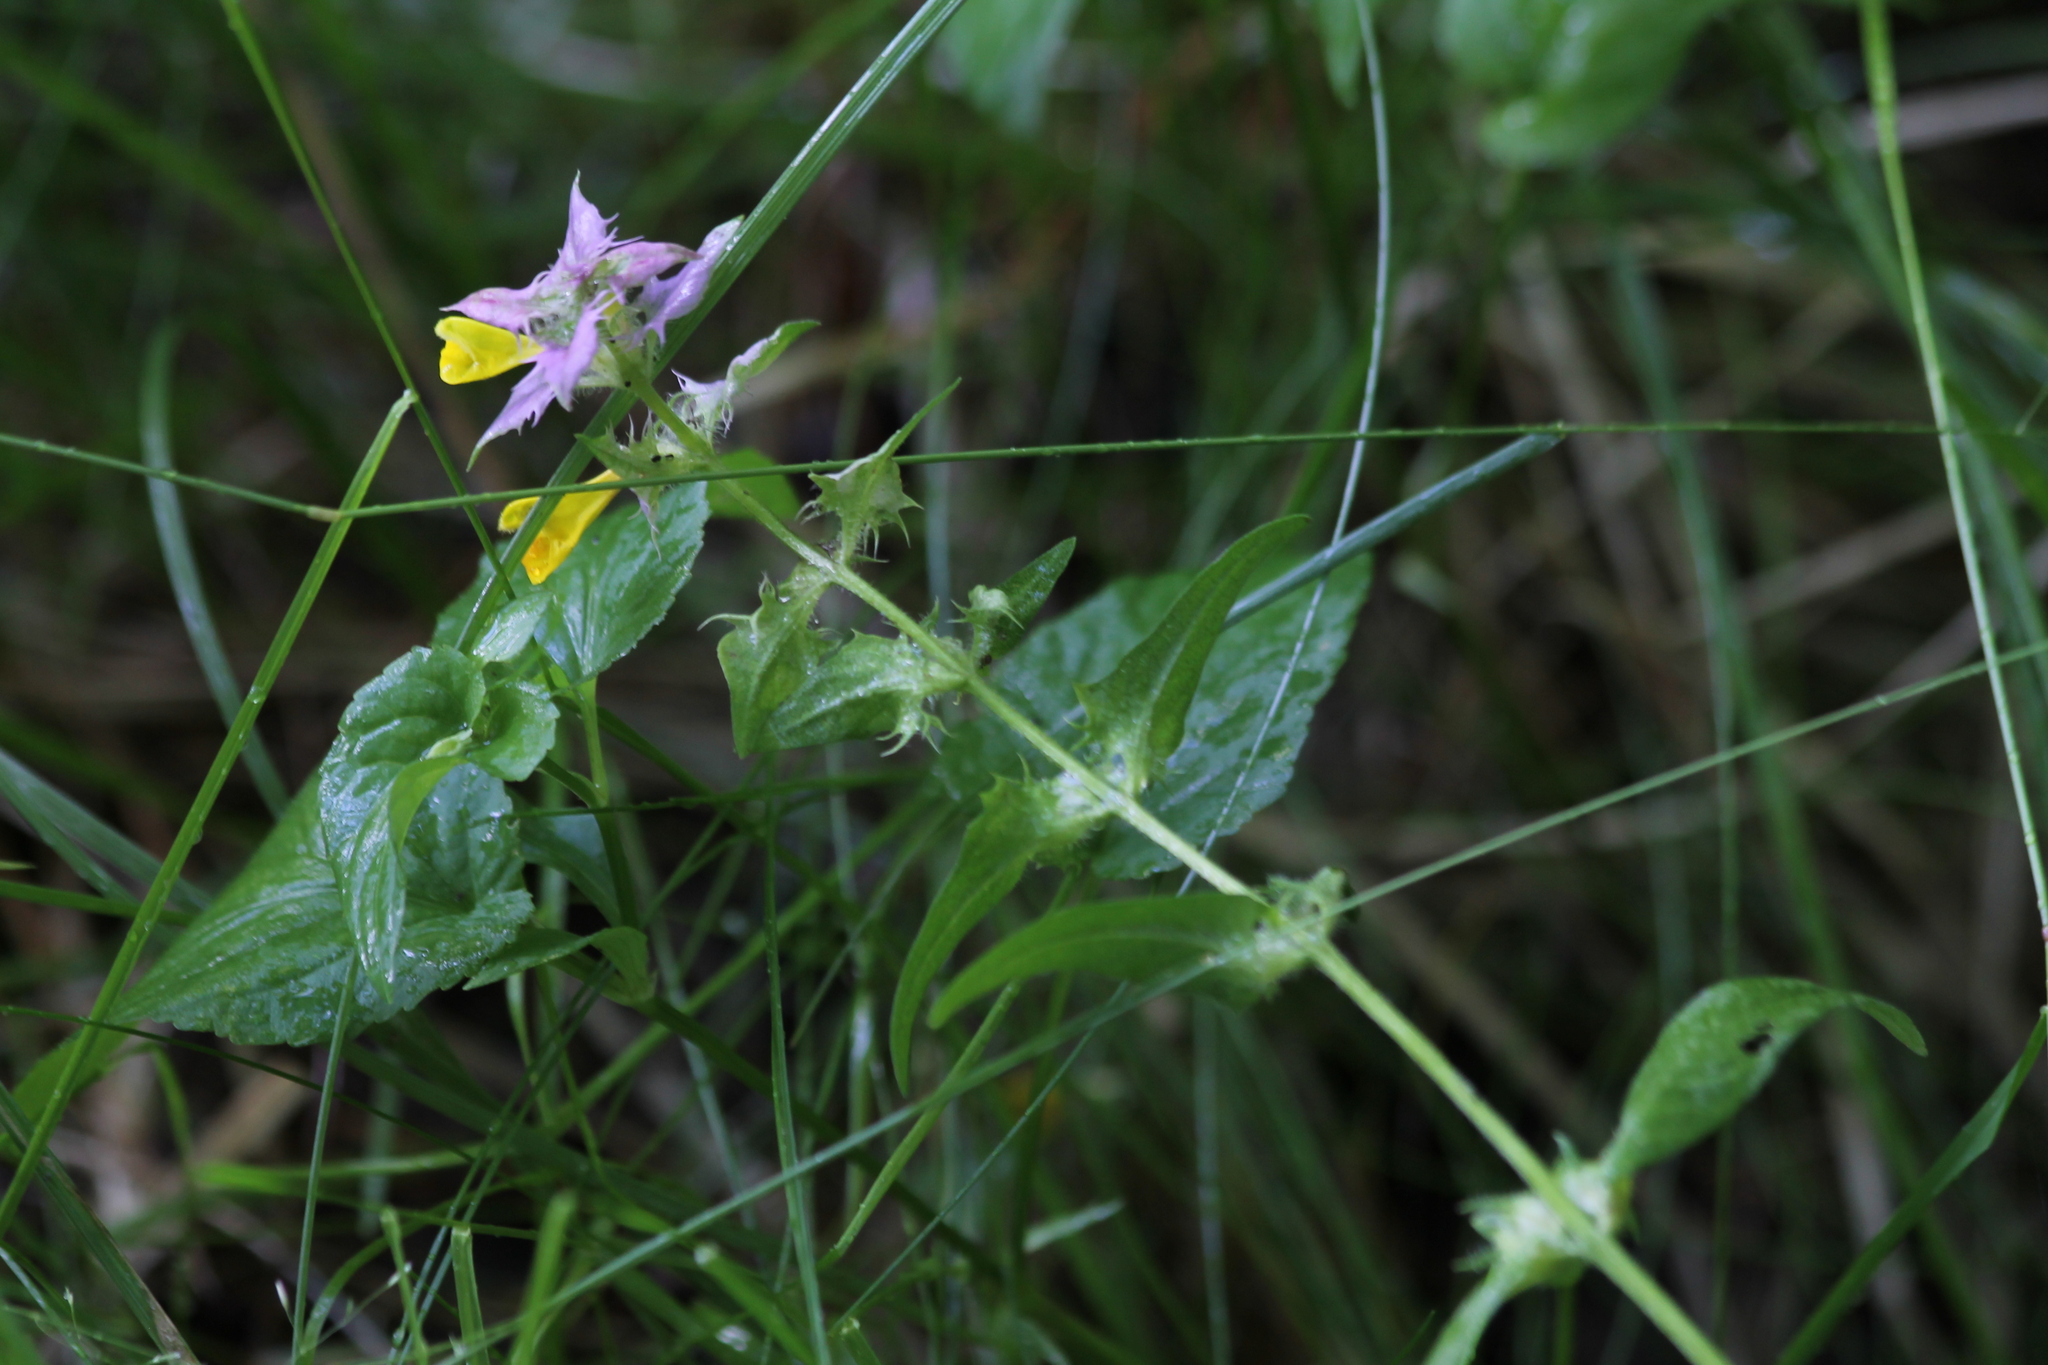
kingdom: Plantae
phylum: Tracheophyta
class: Magnoliopsida
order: Lamiales
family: Orobanchaceae
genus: Melampyrum
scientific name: Melampyrum nemorosum
